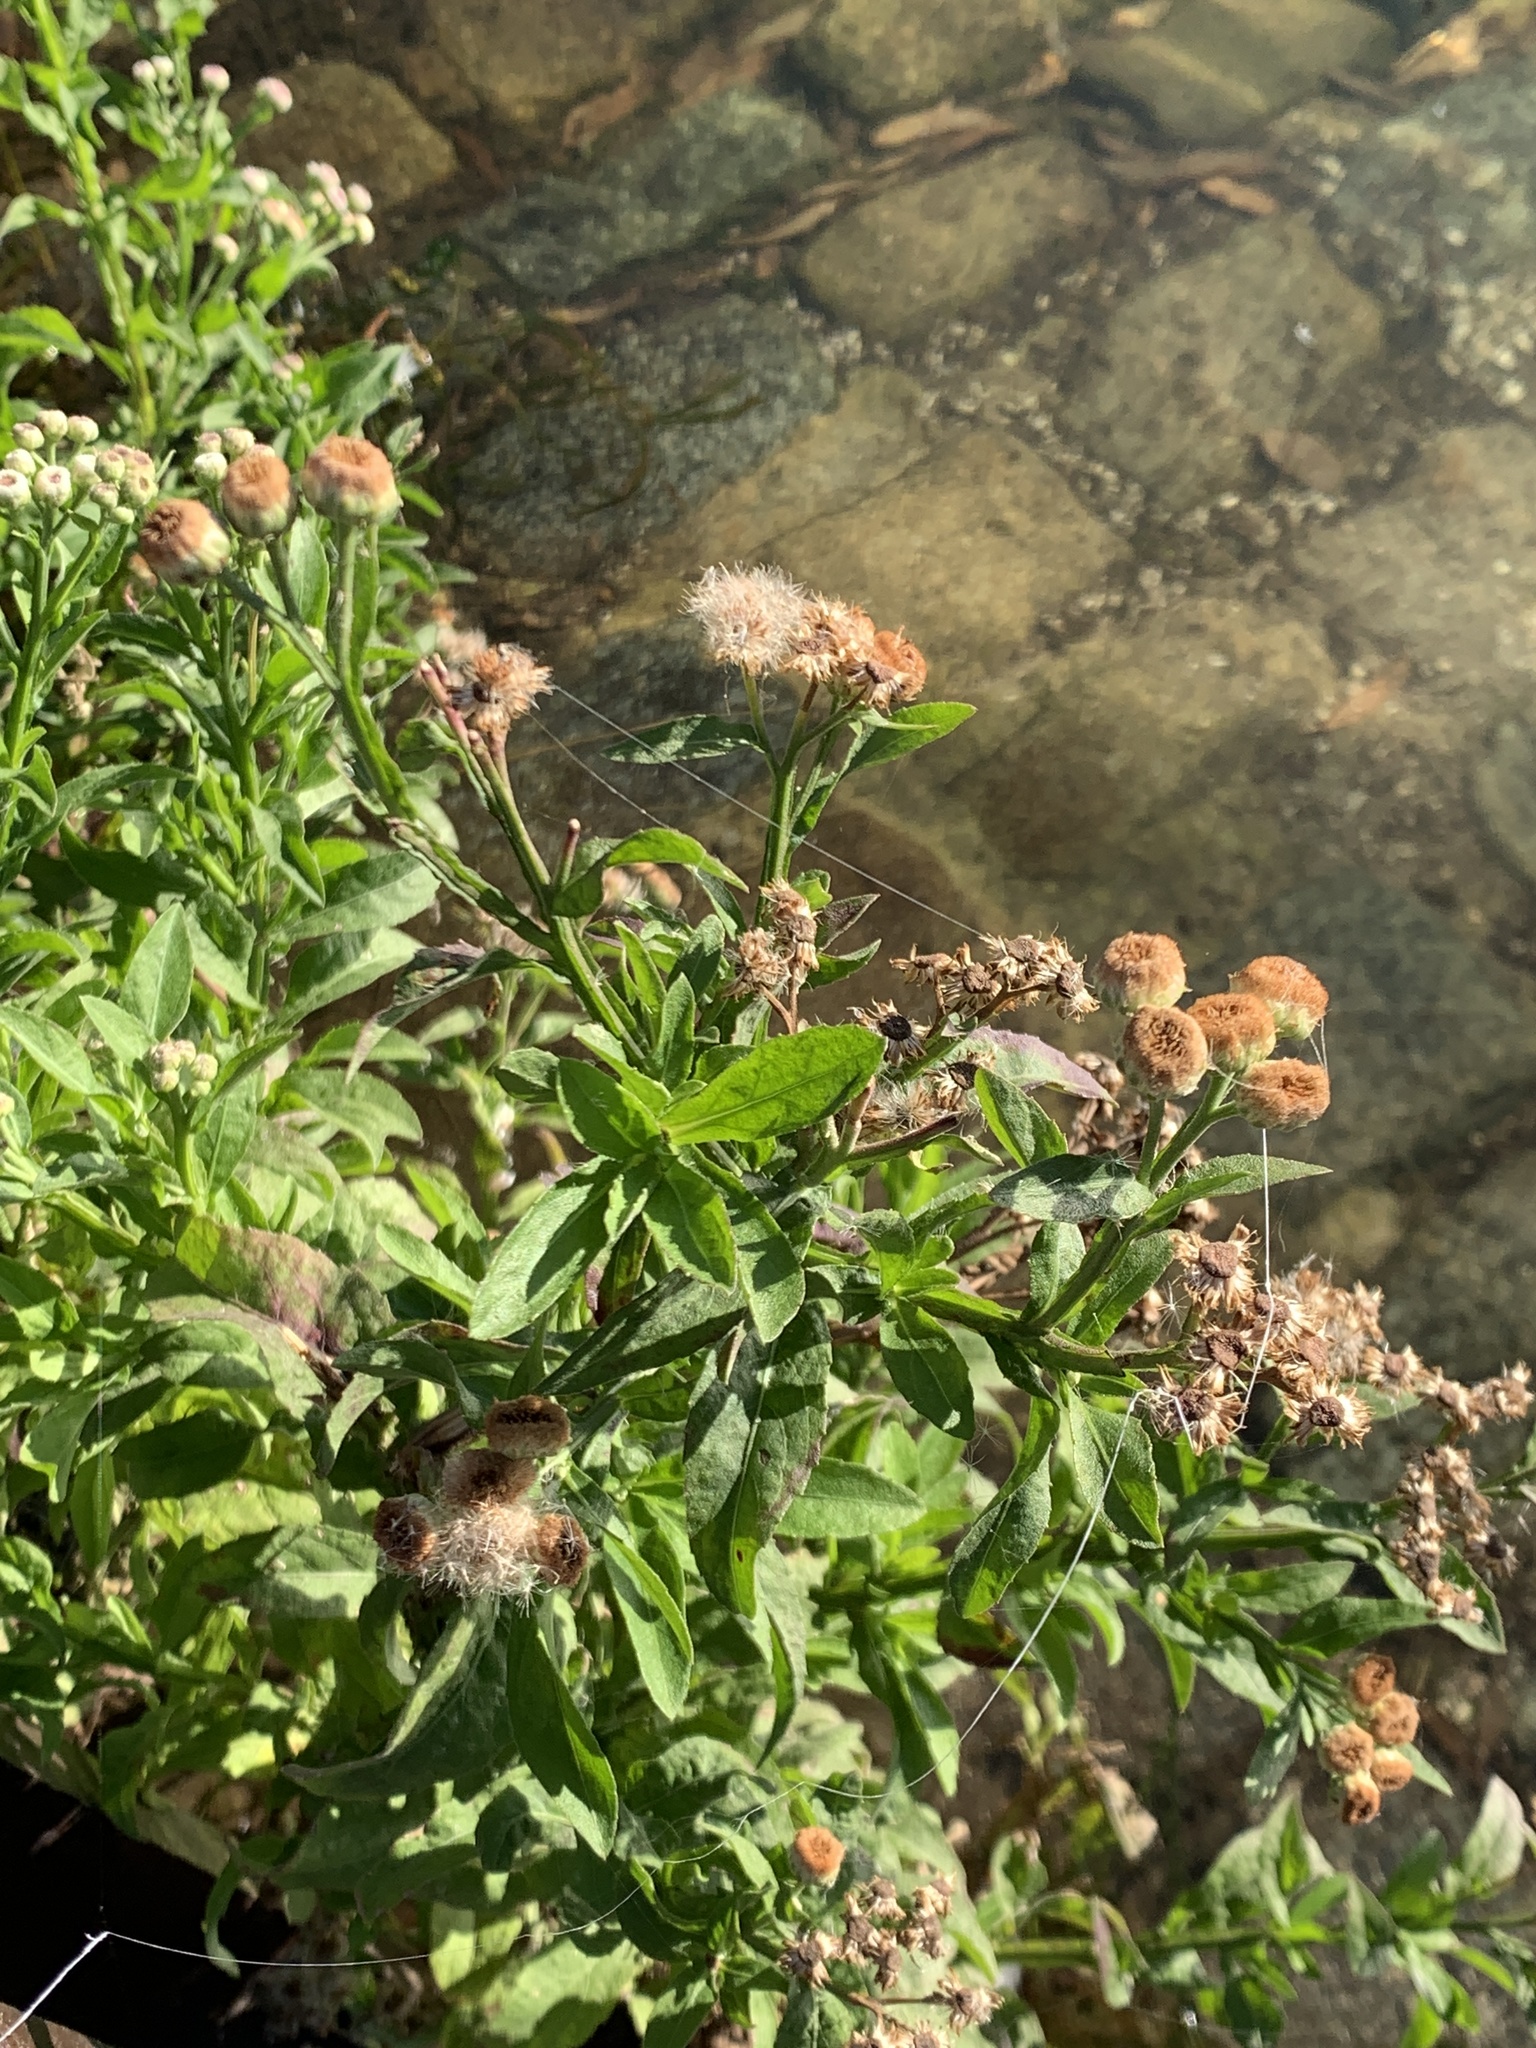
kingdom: Plantae
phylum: Tracheophyta
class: Magnoliopsida
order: Asterales
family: Asteraceae
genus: Pluchea
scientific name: Pluchea sagittalis
